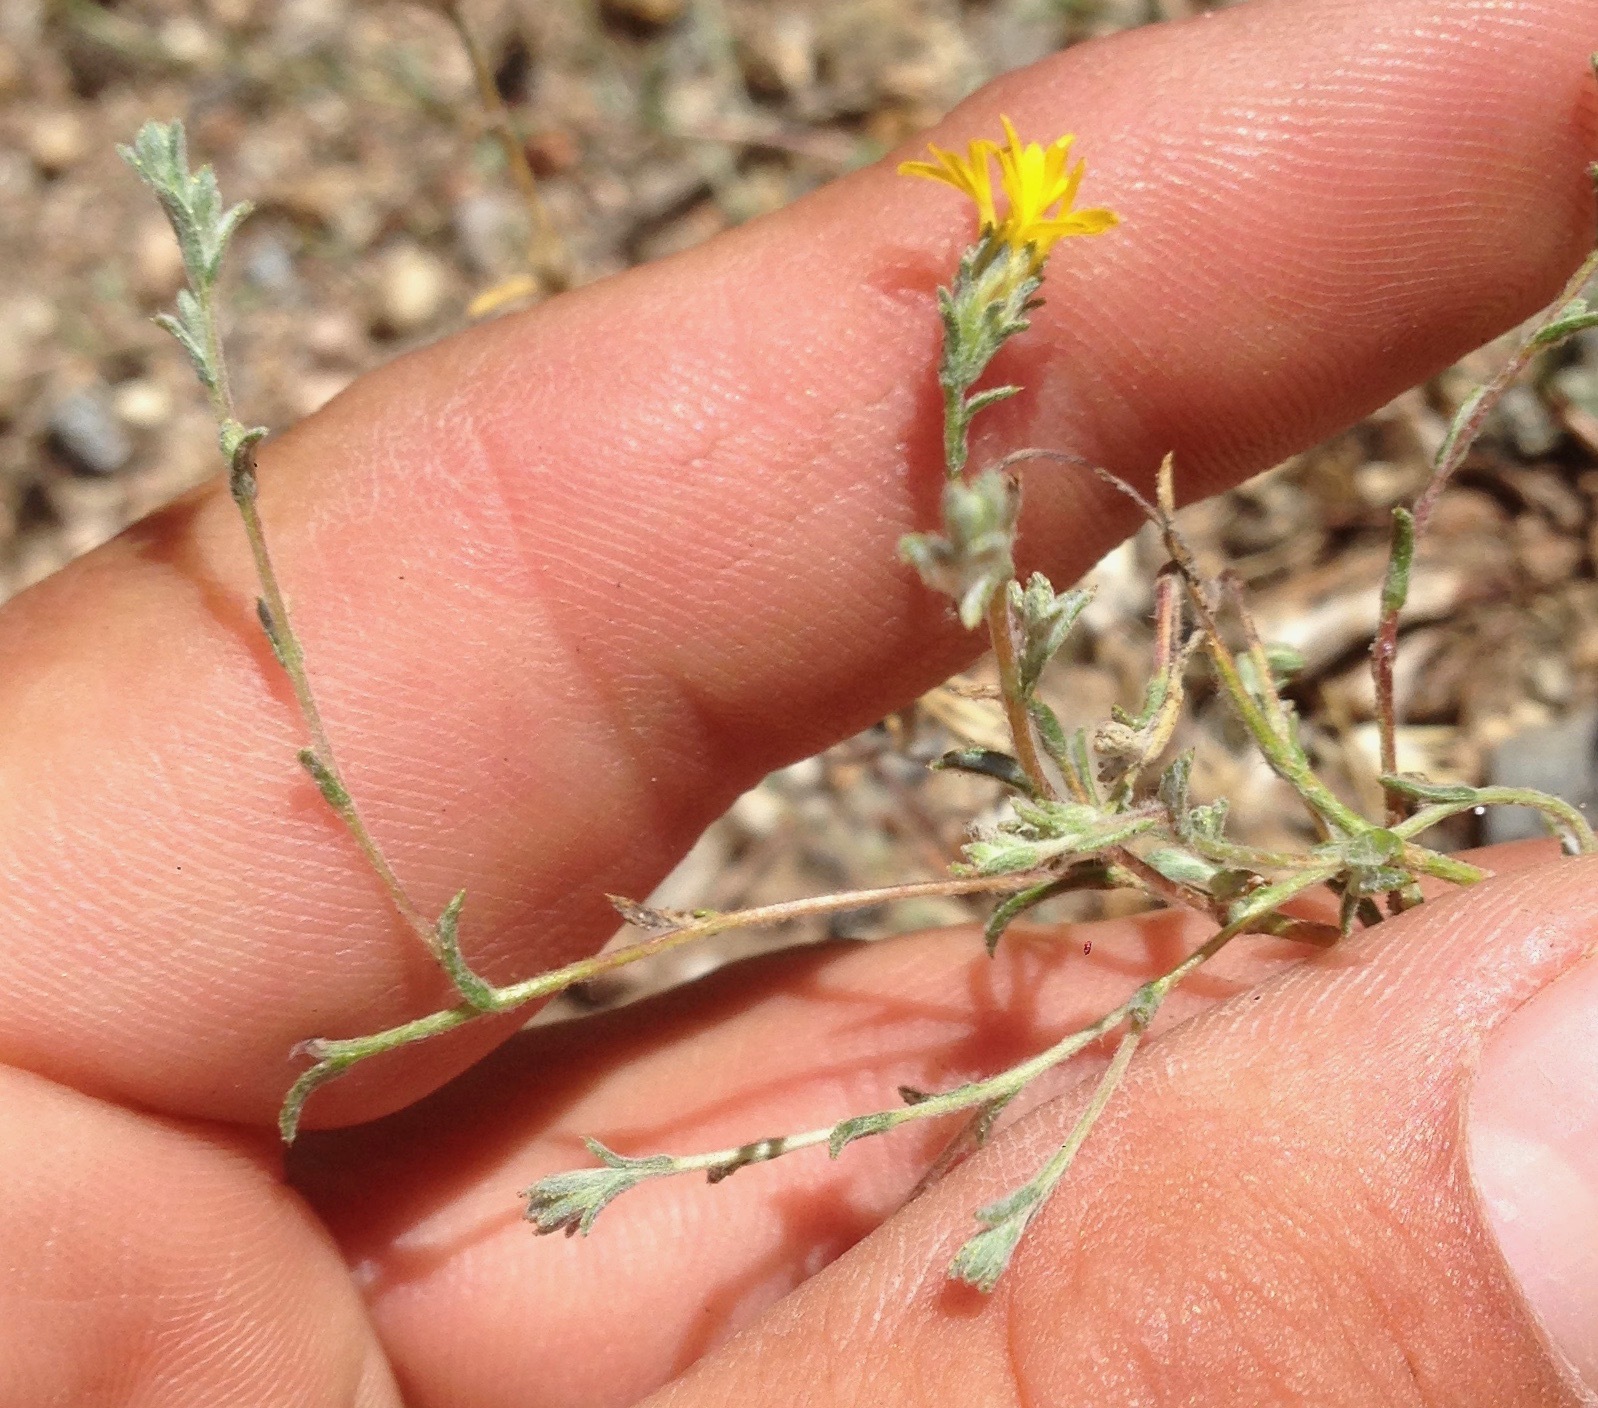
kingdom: Plantae
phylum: Tracheophyta
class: Magnoliopsida
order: Asterales
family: Asteraceae
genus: Lessingia
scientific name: Lessingia glandulifera
